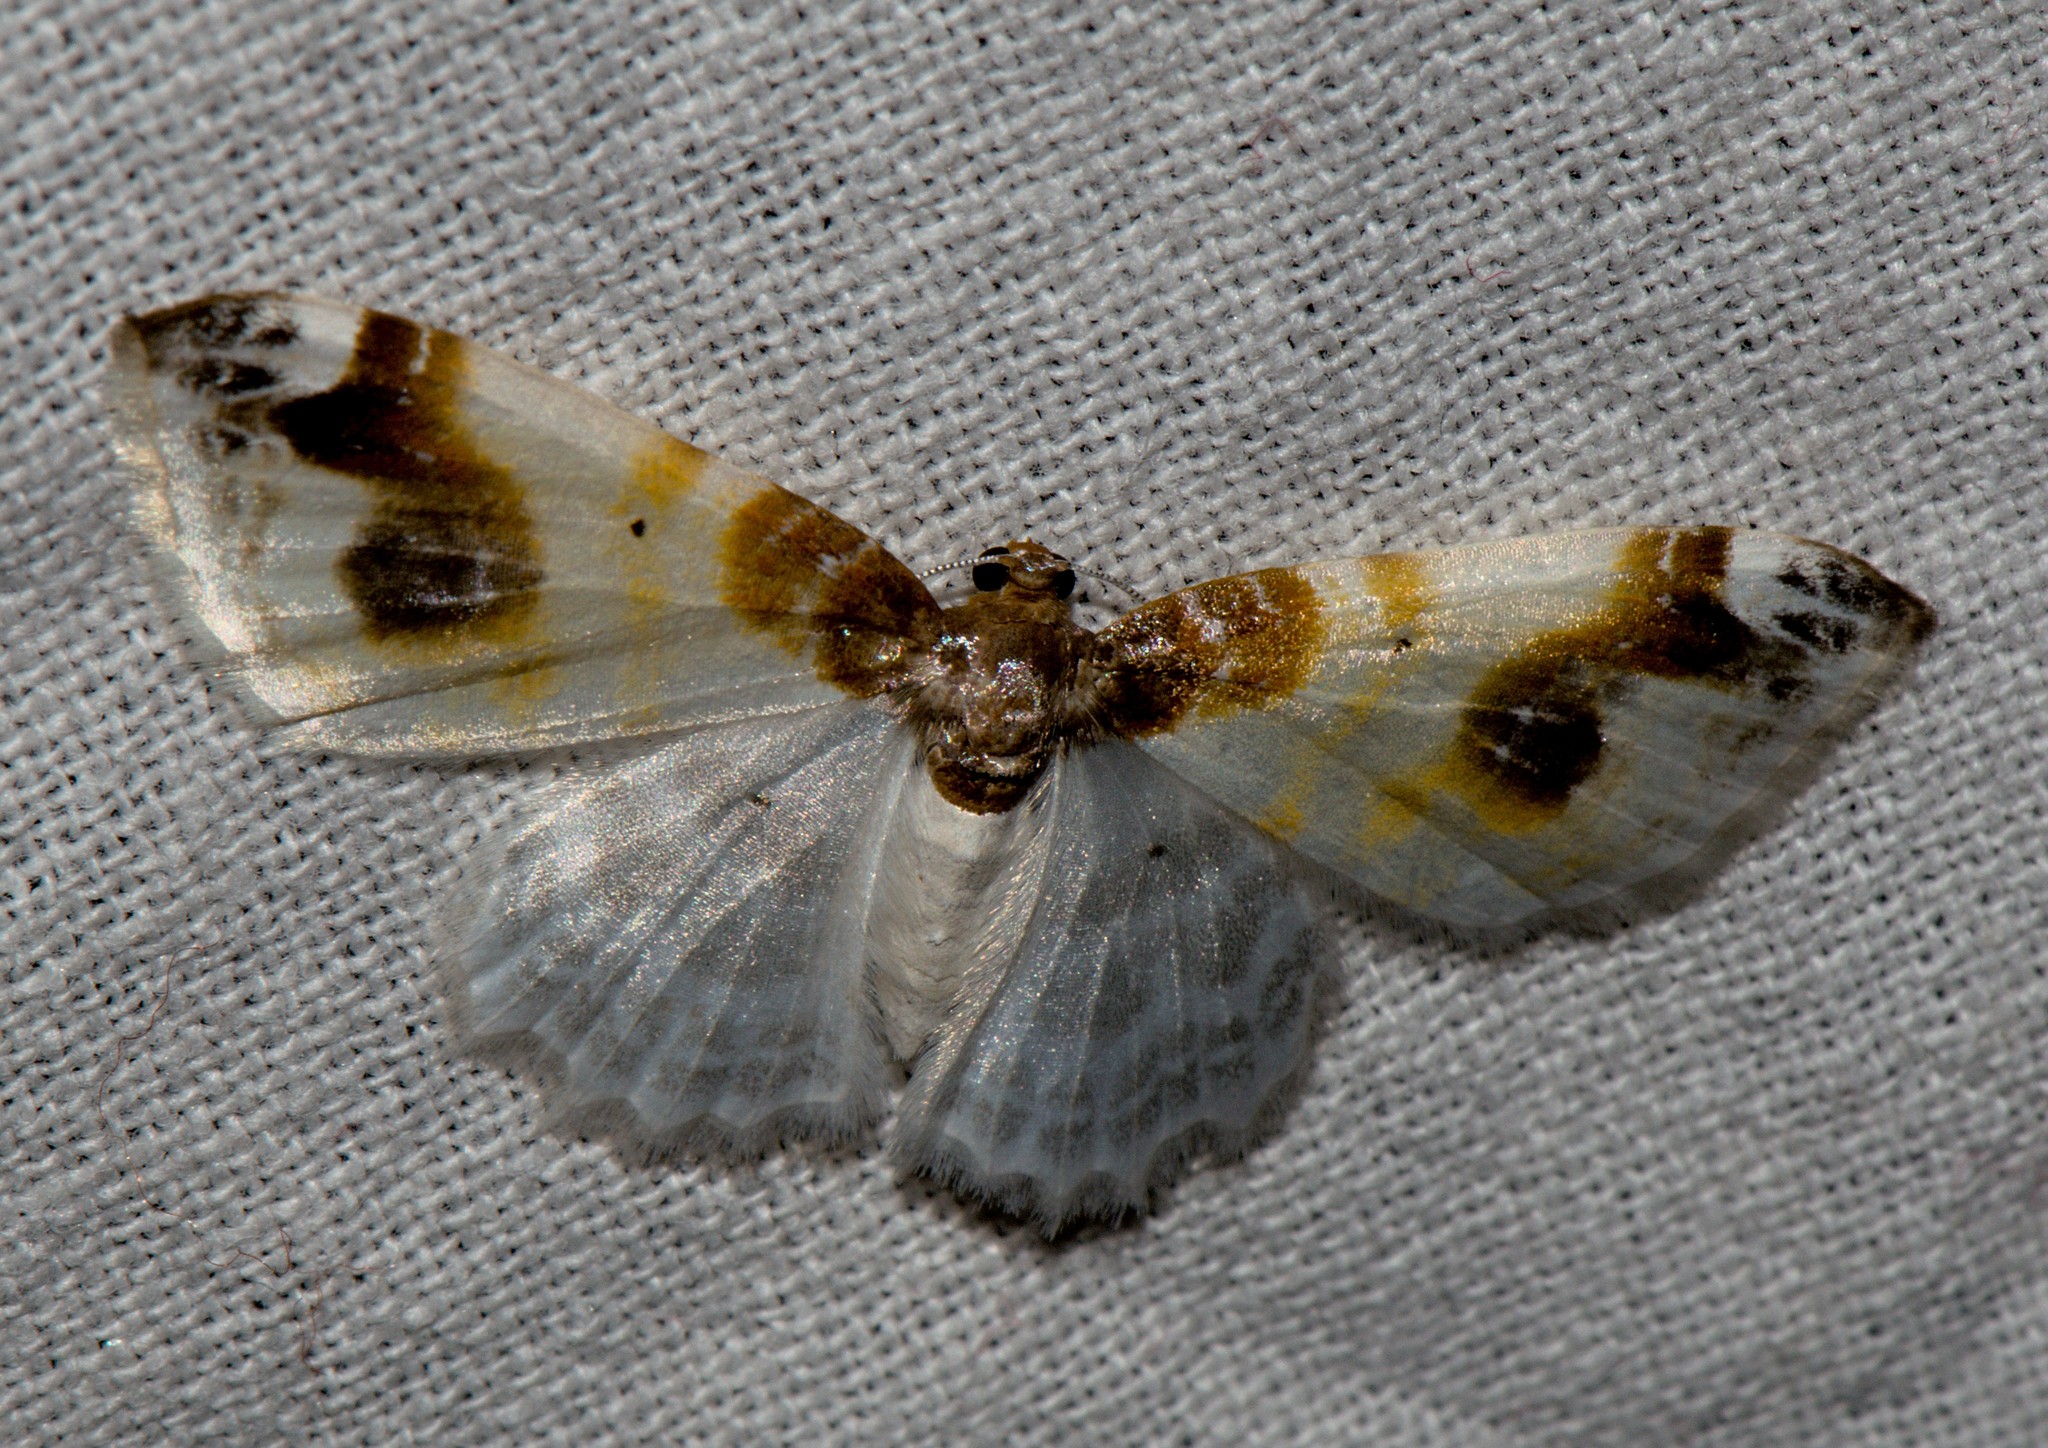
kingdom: Animalia
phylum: Arthropoda
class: Insecta
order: Lepidoptera
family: Geometridae
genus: Agnibesa
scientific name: Agnibesa pictaria
